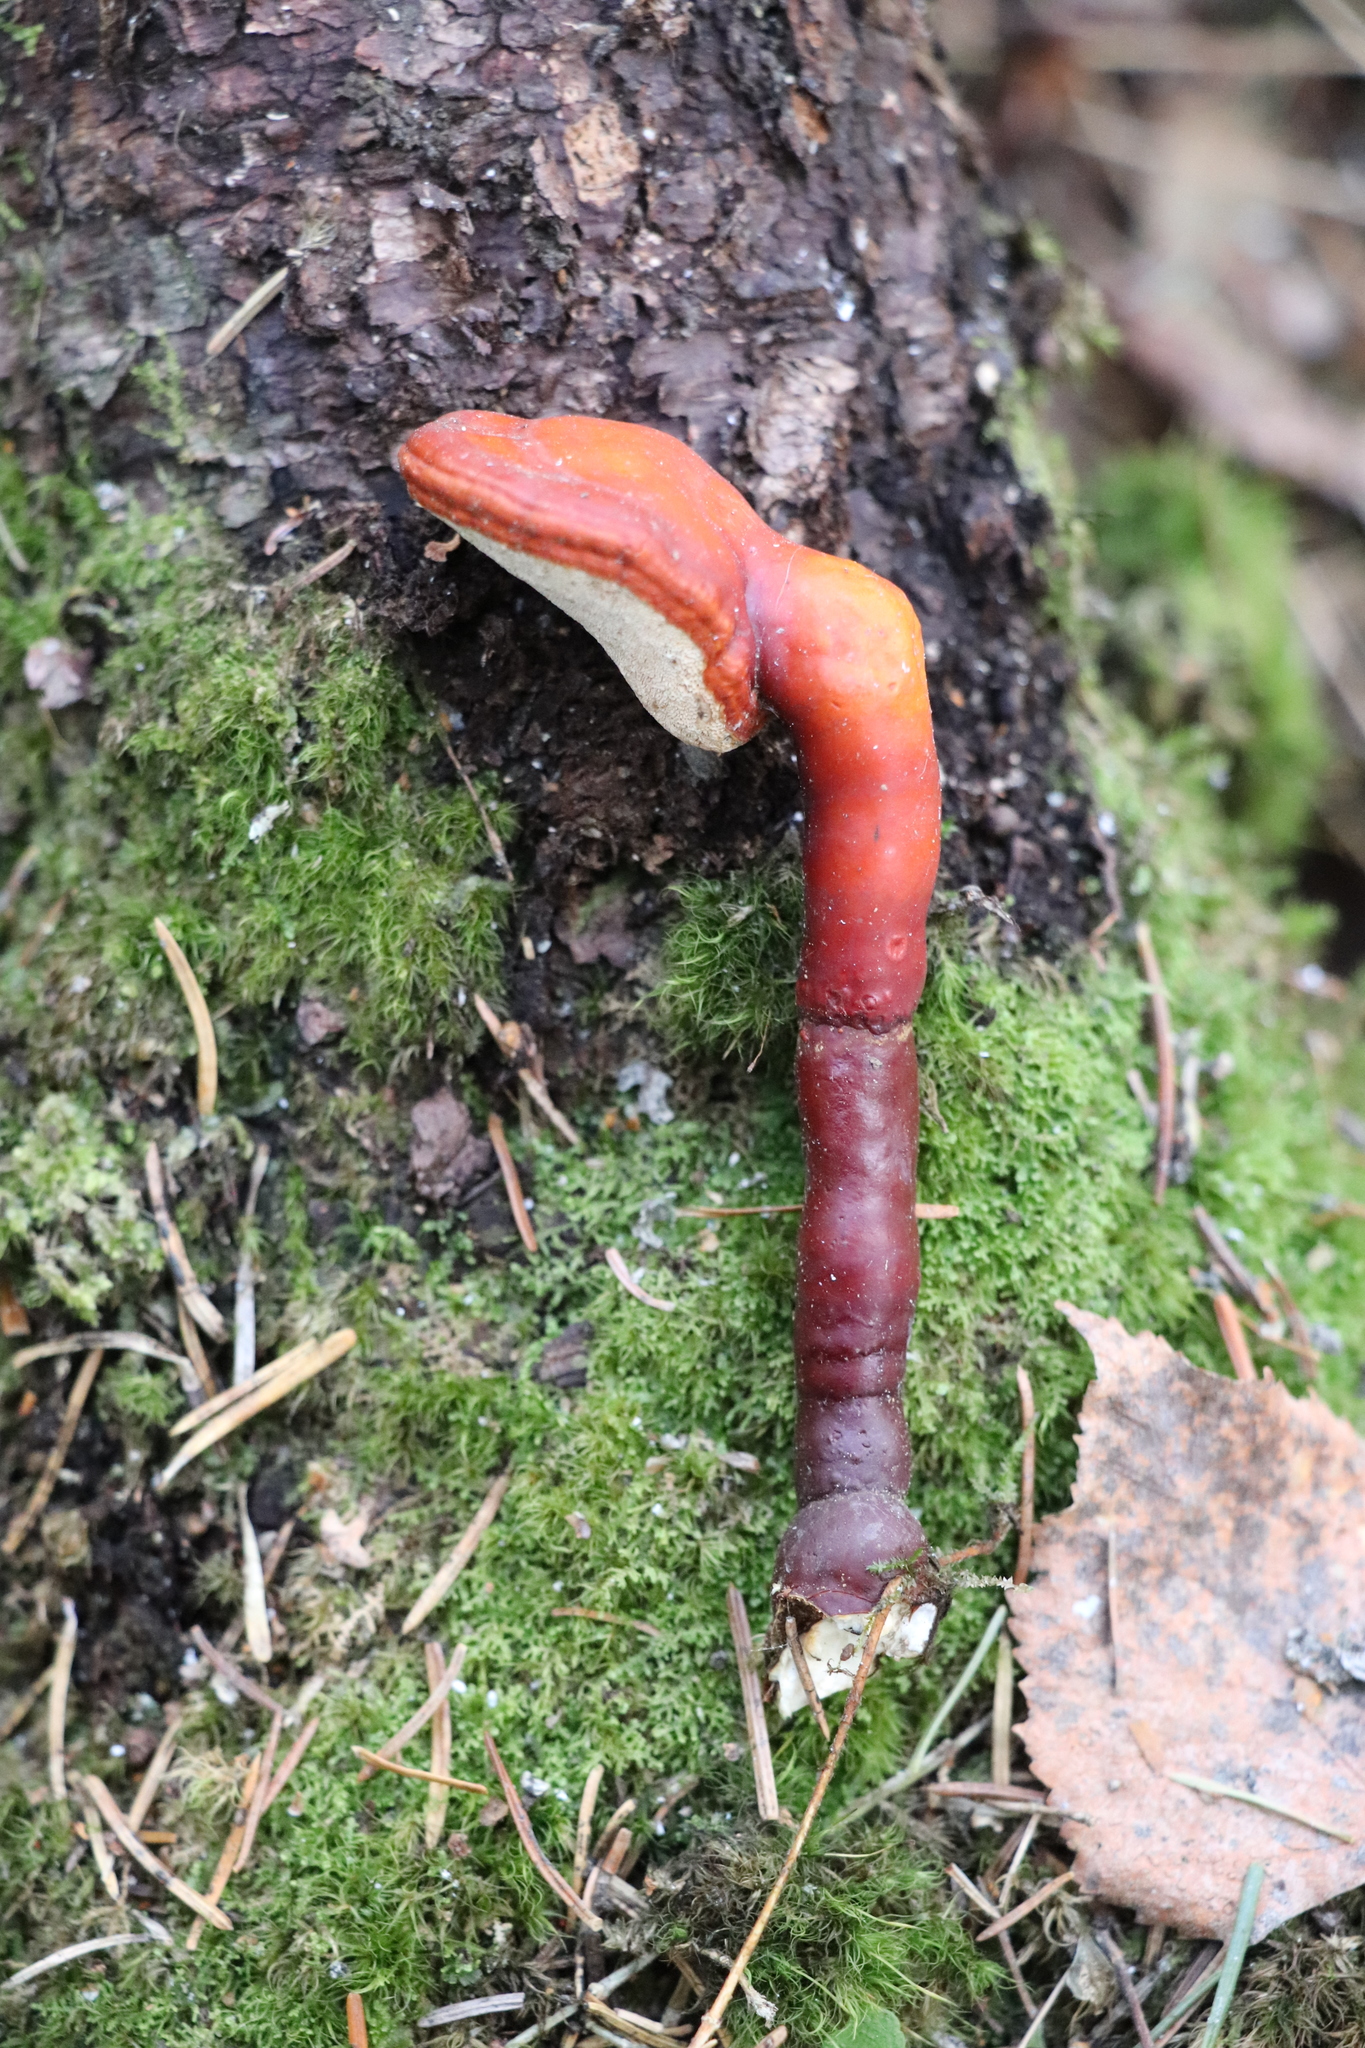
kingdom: Fungi
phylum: Basidiomycota
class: Agaricomycetes
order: Polyporales
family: Polyporaceae
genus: Ganoderma
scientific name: Ganoderma lucidum
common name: Lacquered bracket
